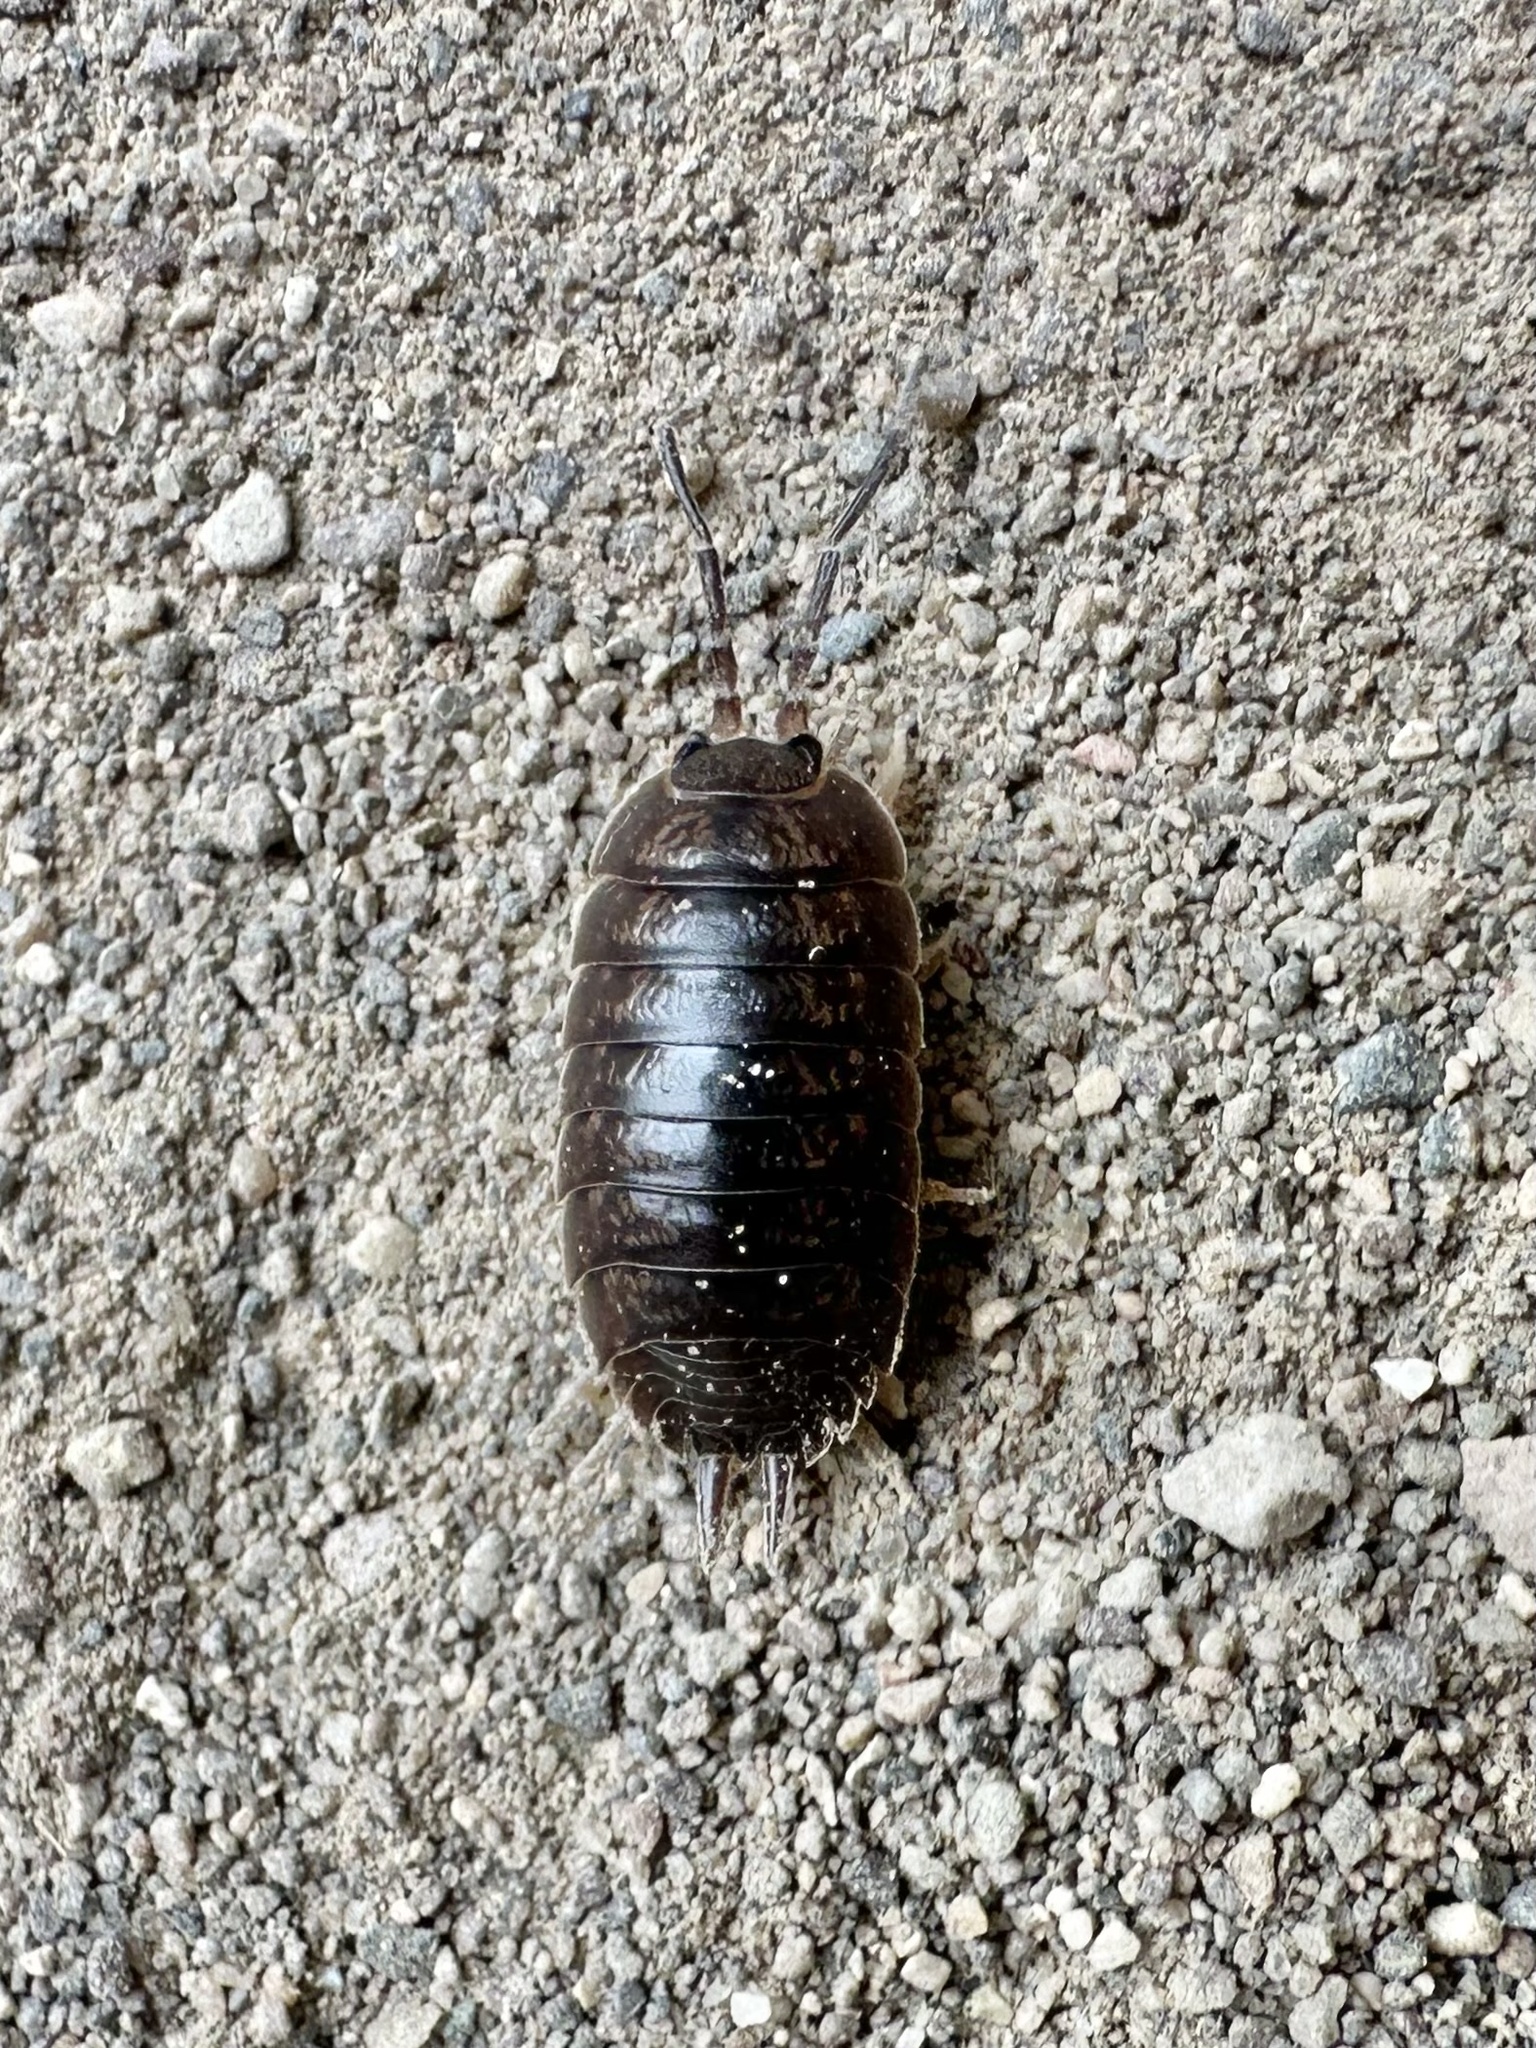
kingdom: Animalia
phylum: Arthropoda
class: Malacostraca
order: Isopoda
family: Porcellionidae
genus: Porcellio
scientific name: Porcellio laevis
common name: Swift woodlouse
